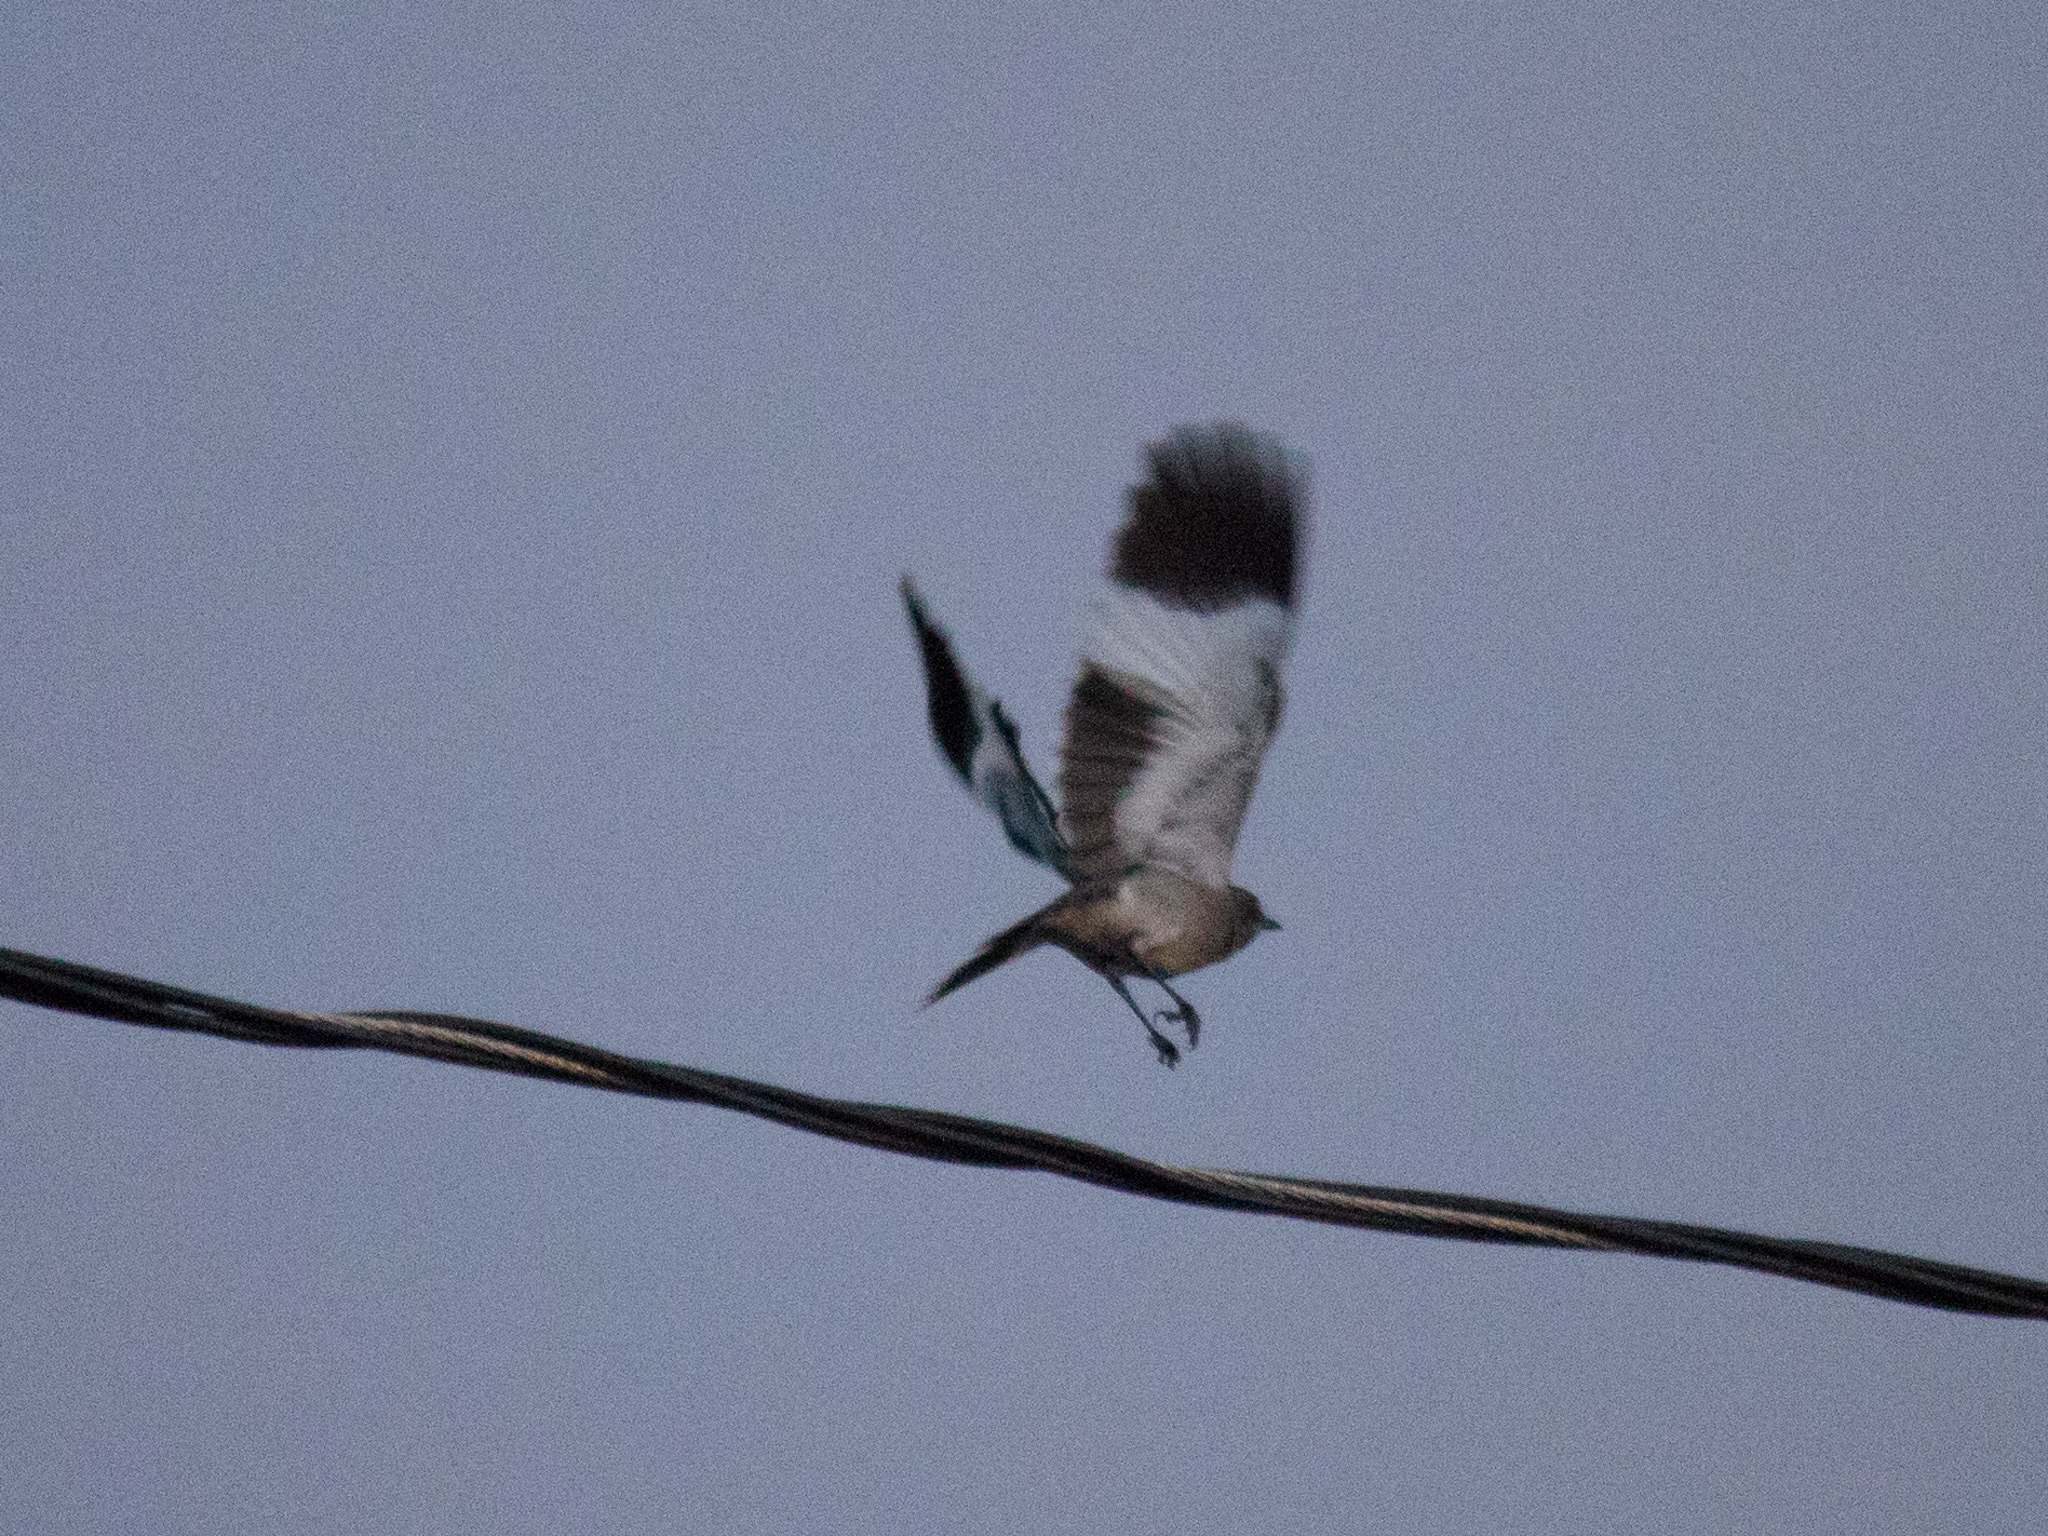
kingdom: Animalia
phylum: Chordata
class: Aves
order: Passeriformes
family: Tyrannidae
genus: Xolmis
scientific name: Xolmis cinereus
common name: Grey monjita
